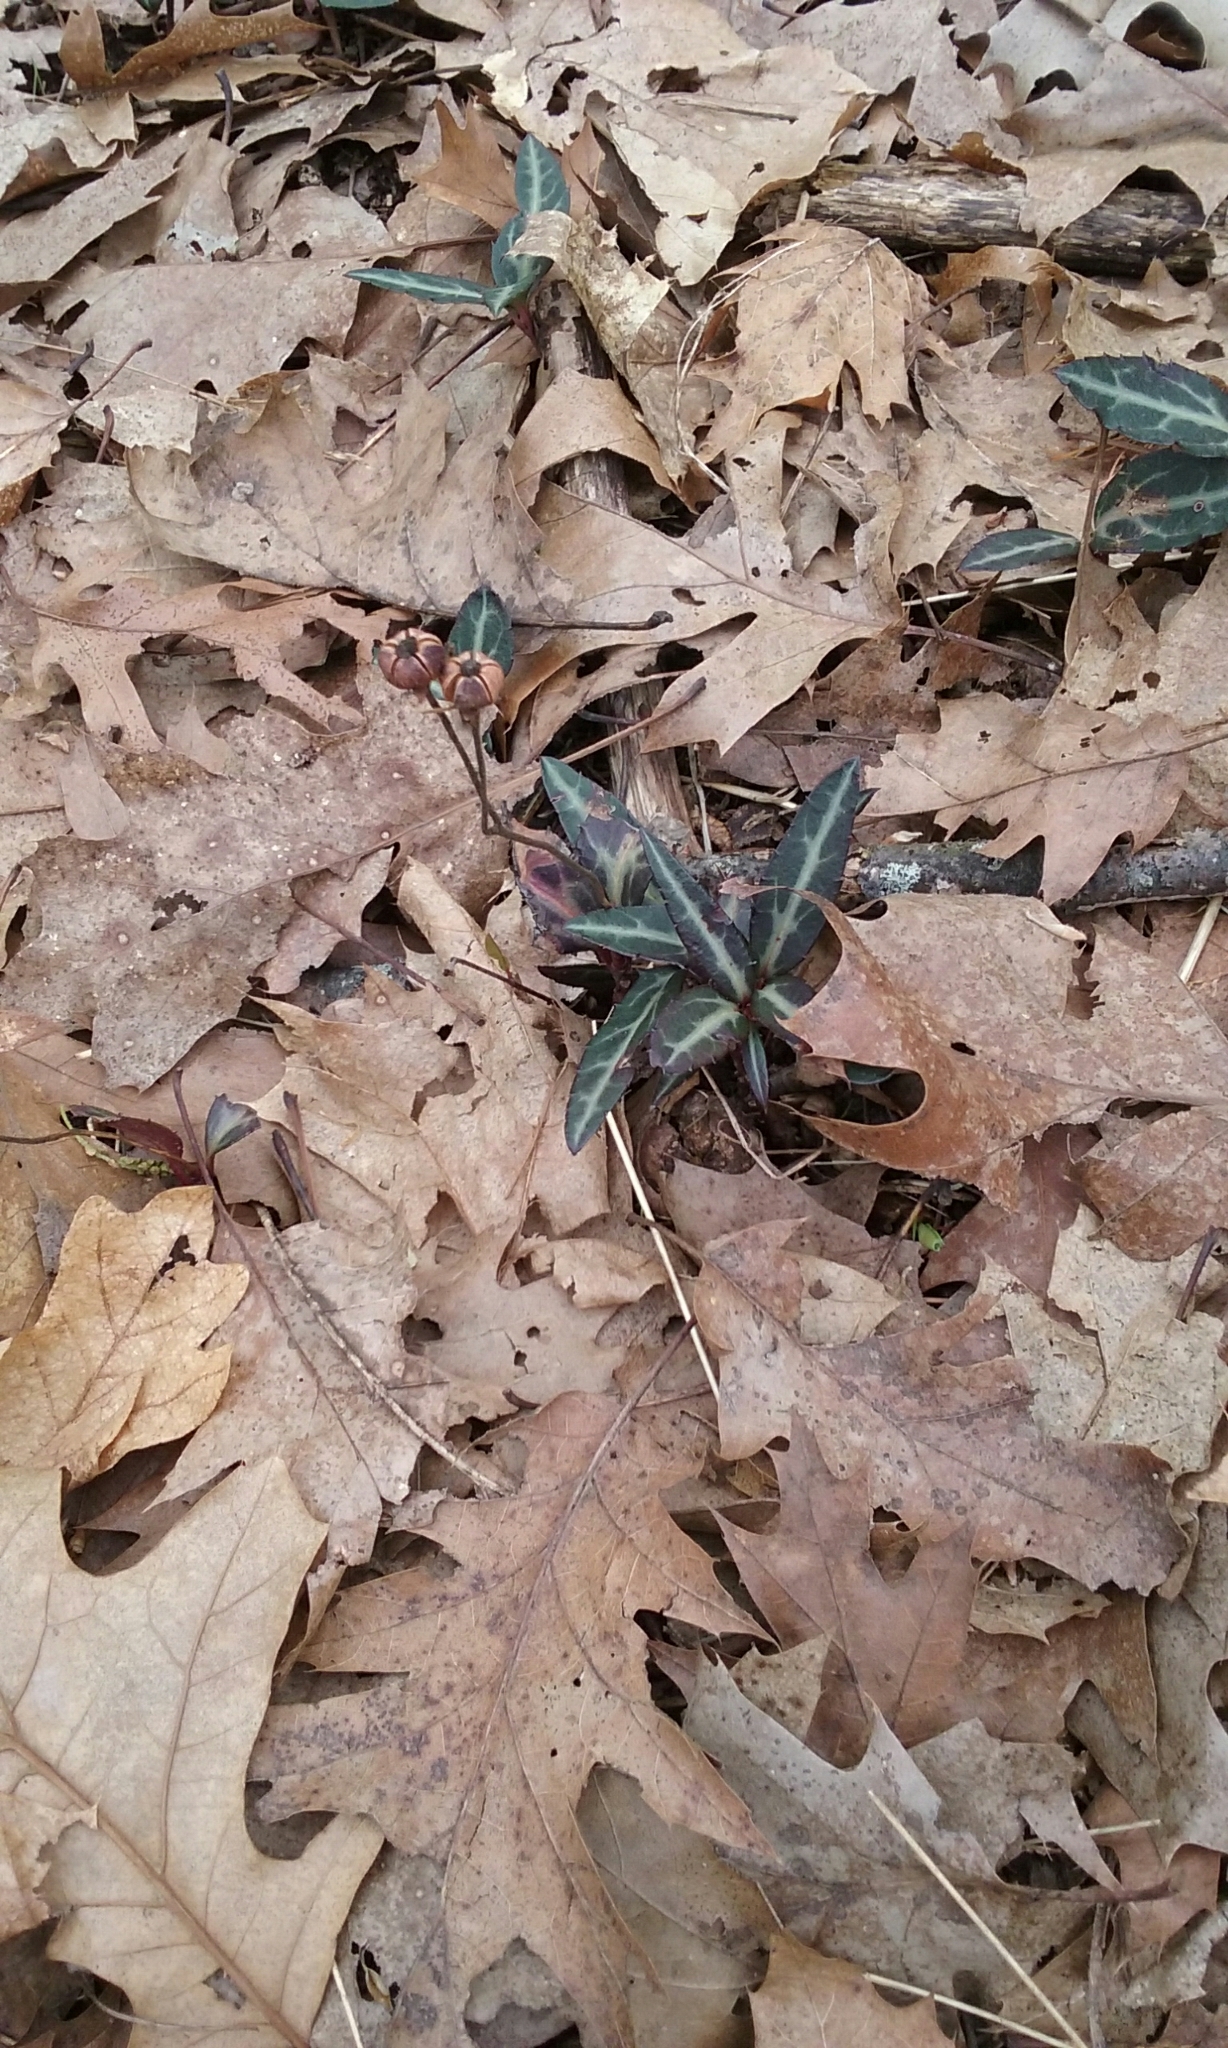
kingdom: Plantae
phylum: Tracheophyta
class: Magnoliopsida
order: Ericales
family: Ericaceae
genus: Chimaphila
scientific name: Chimaphila maculata
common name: Spotted pipsissewa
